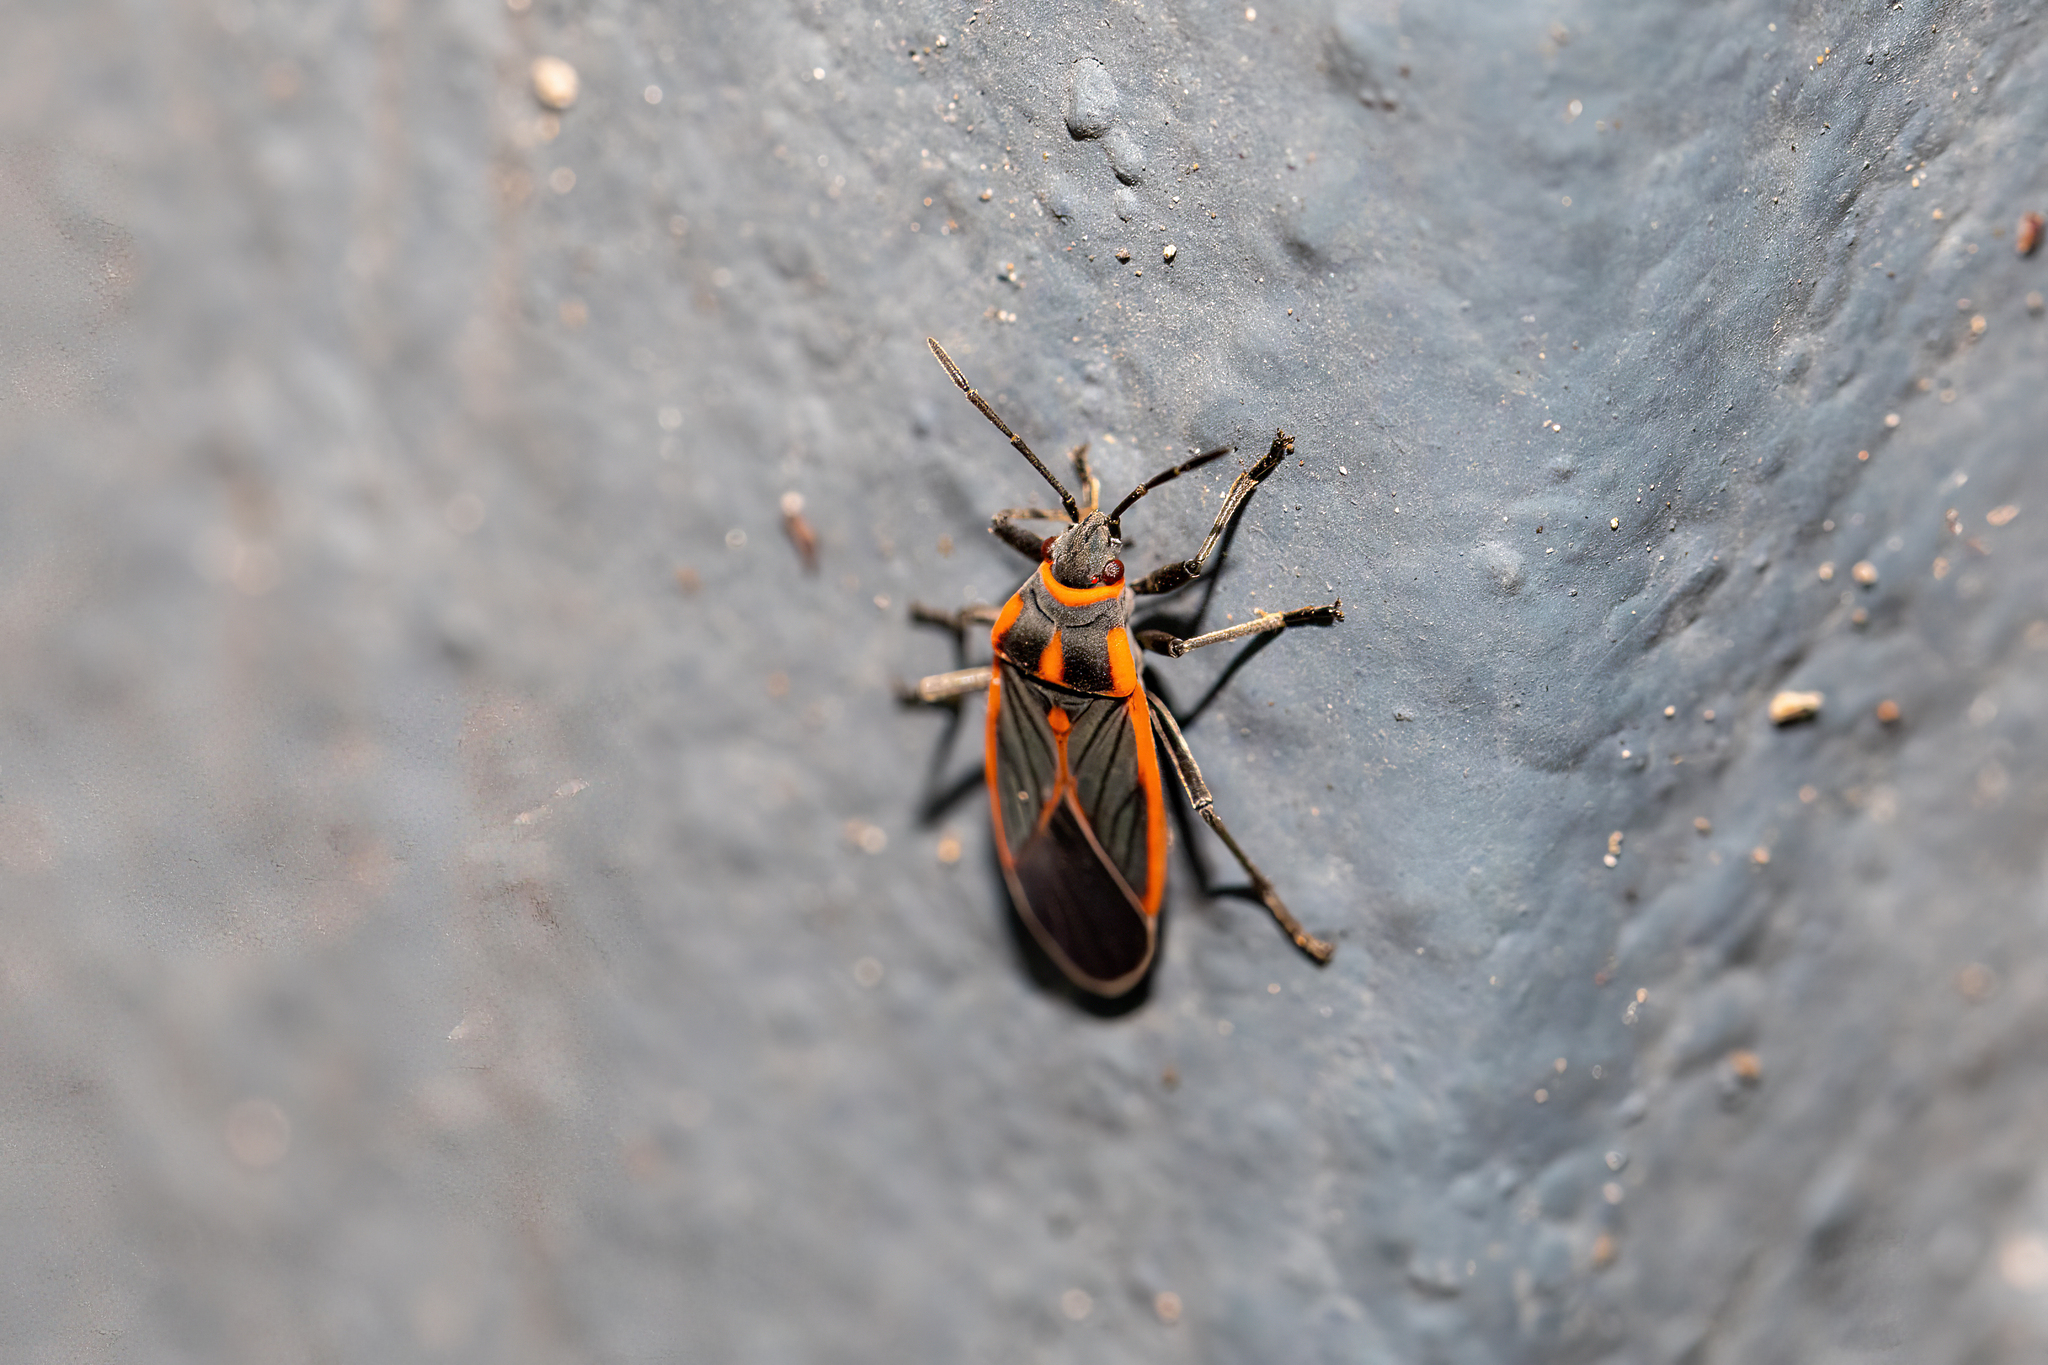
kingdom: Animalia
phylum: Arthropoda
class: Insecta
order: Hemiptera
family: Lygaeidae
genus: Melacoryphus
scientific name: Melacoryphus circumlitus
